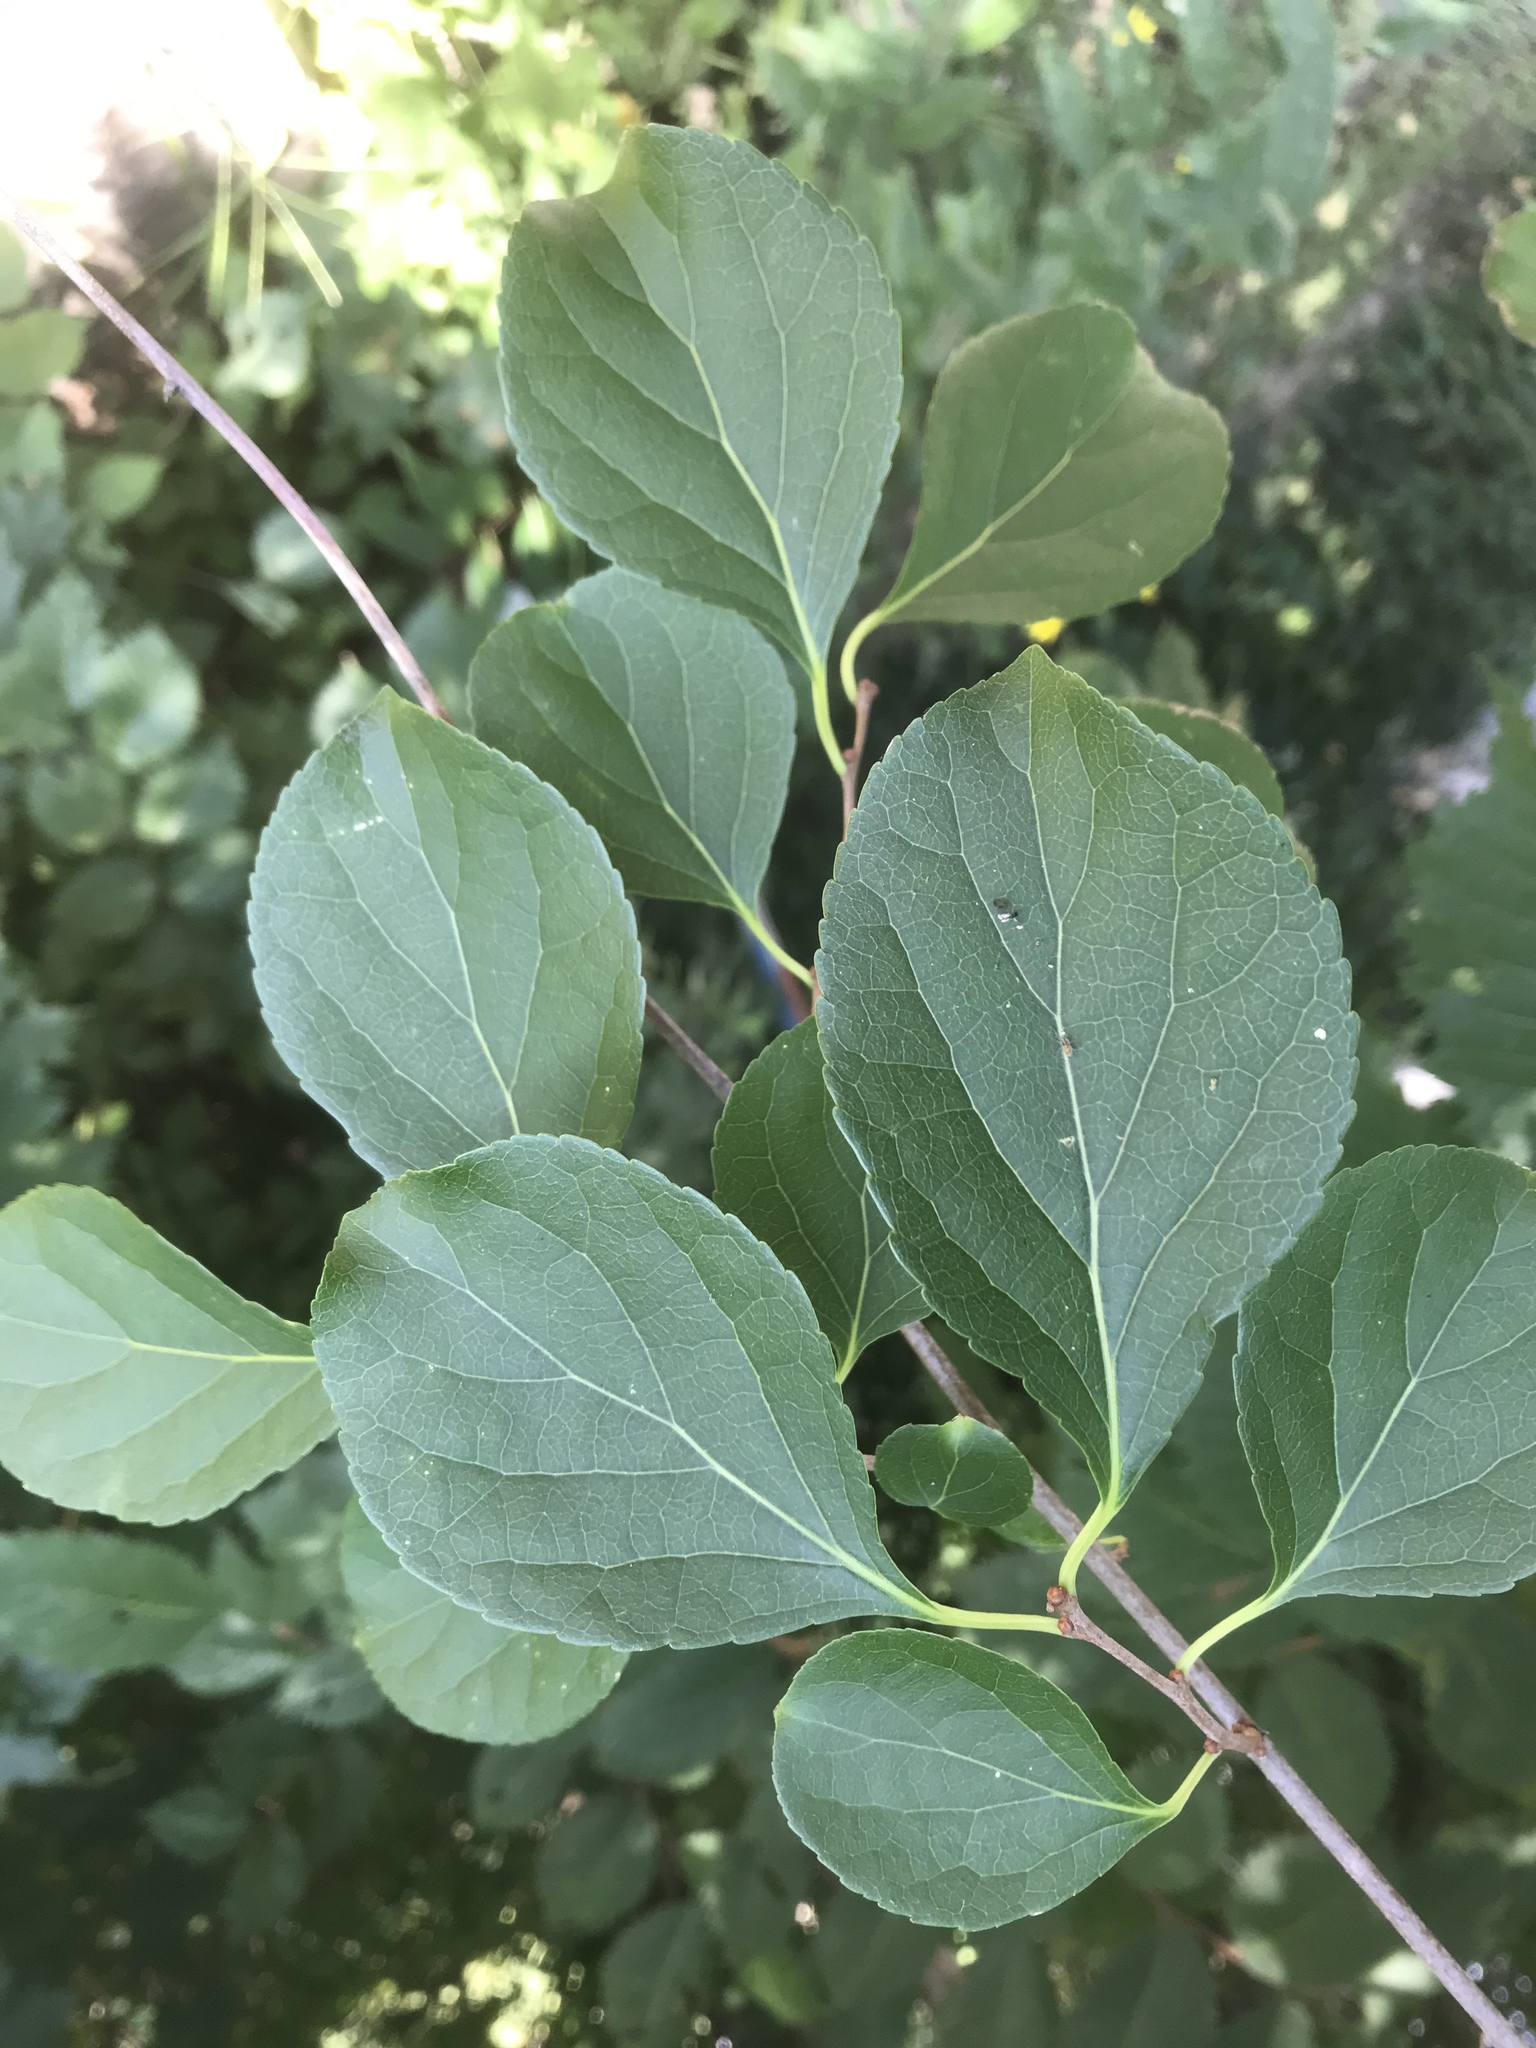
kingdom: Plantae
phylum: Tracheophyta
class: Magnoliopsida
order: Celastrales
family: Celastraceae
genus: Celastrus
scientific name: Celastrus orbiculatus
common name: Oriental bittersweet
